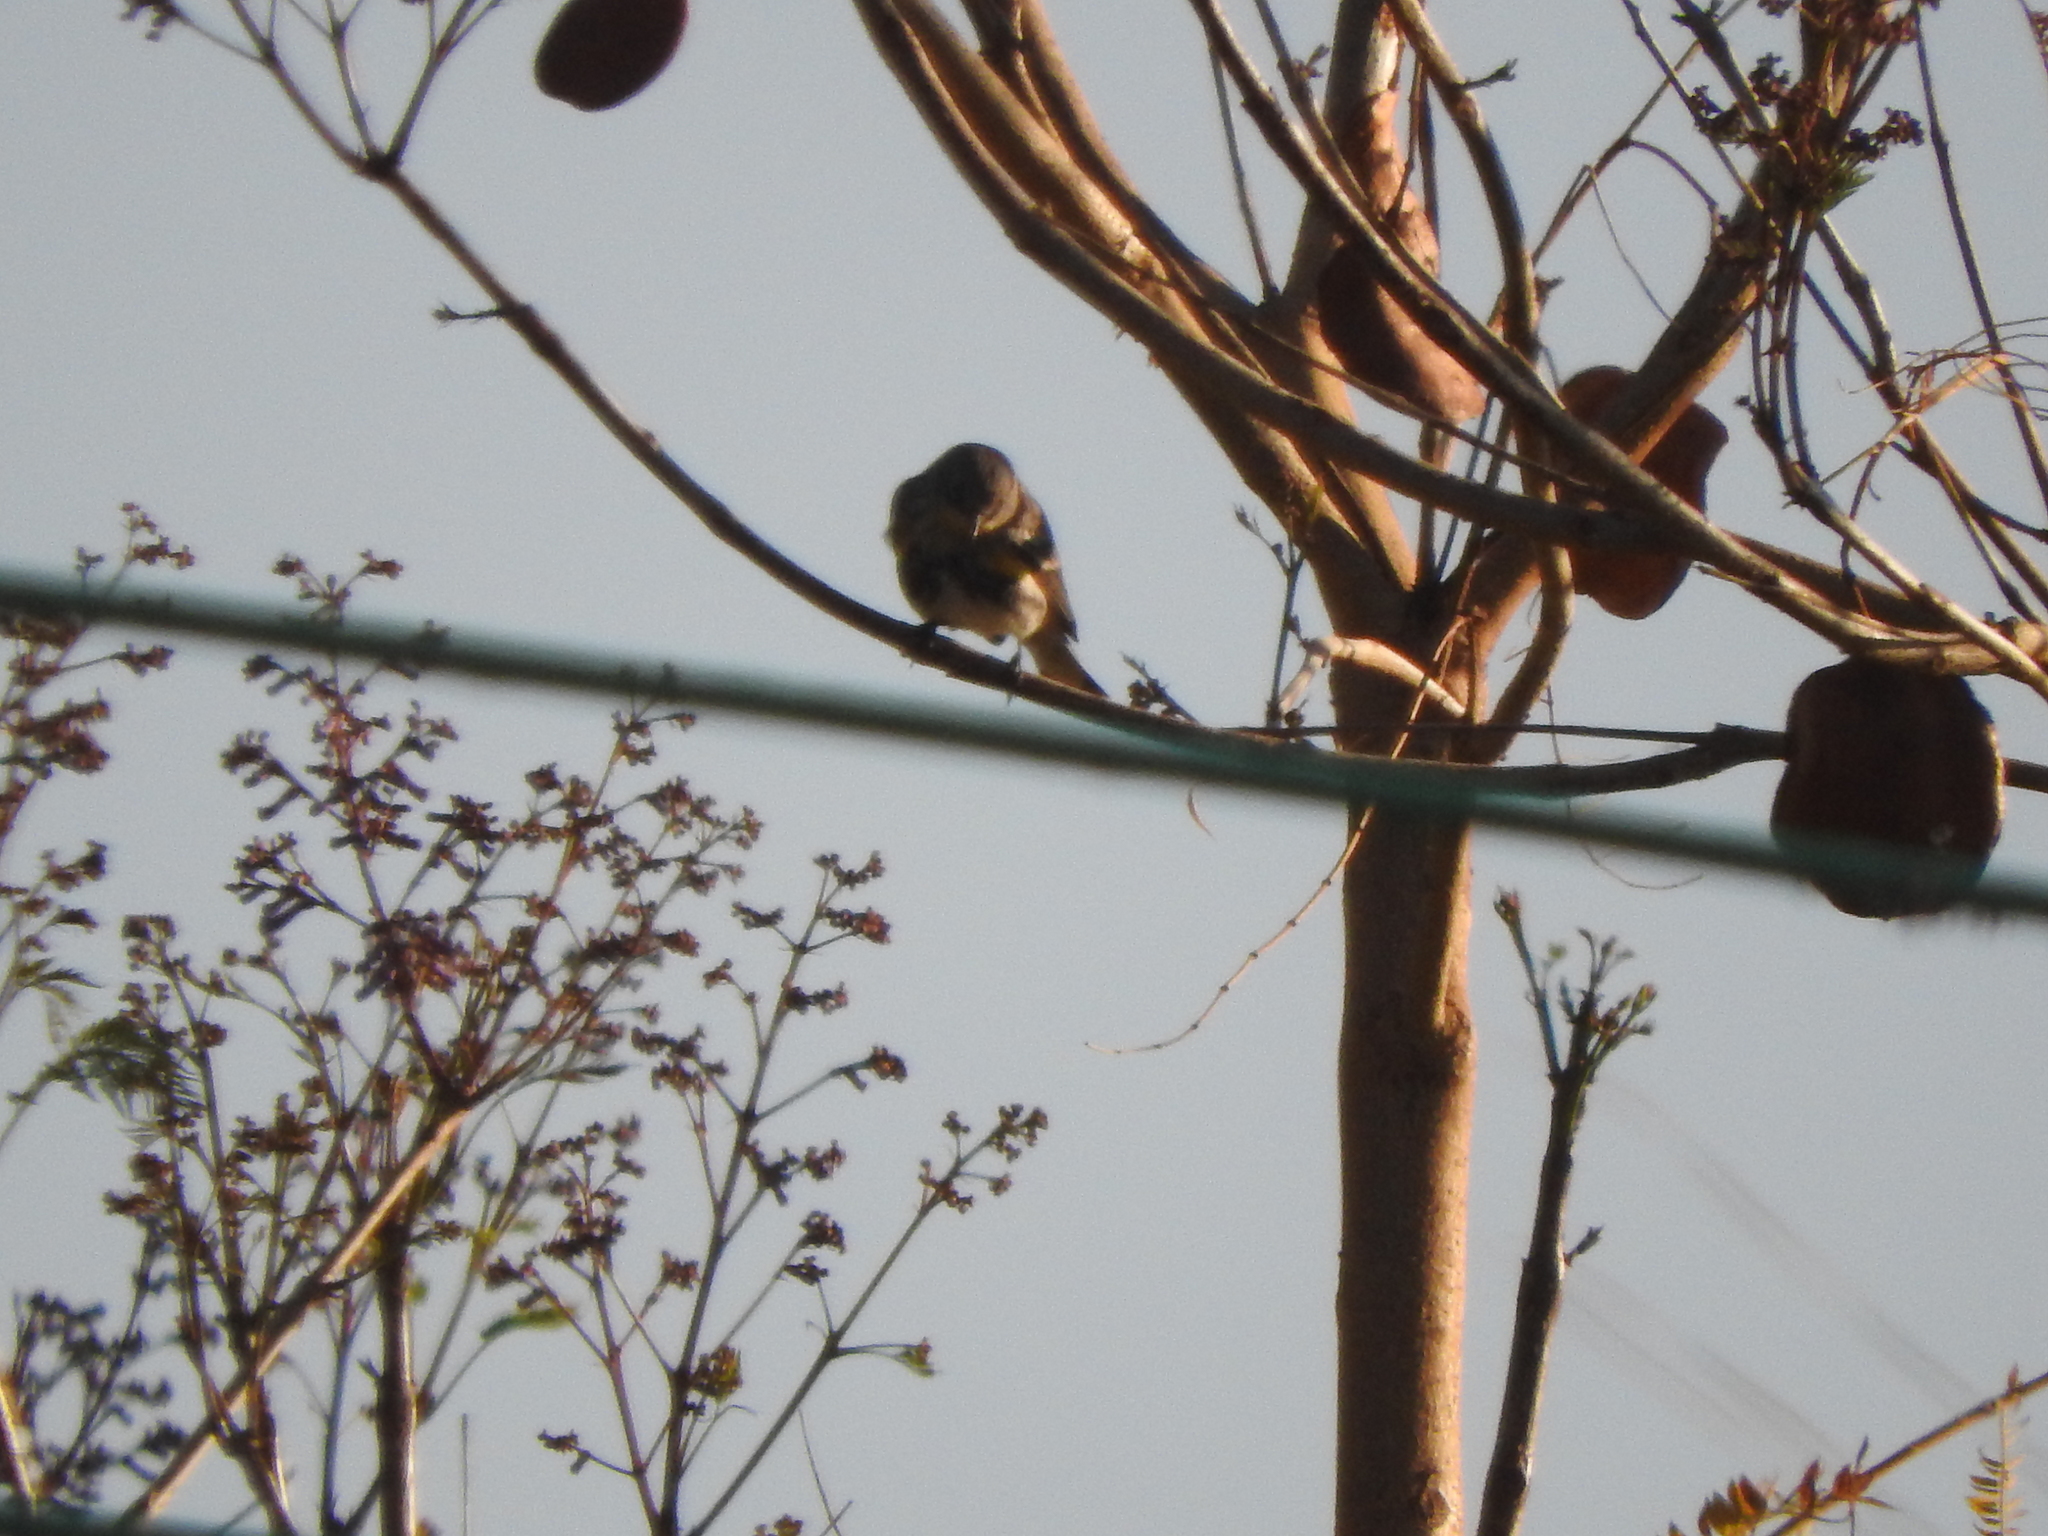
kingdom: Animalia
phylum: Chordata
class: Aves
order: Passeriformes
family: Parulidae
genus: Setophaga
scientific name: Setophaga coronata
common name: Myrtle warbler
